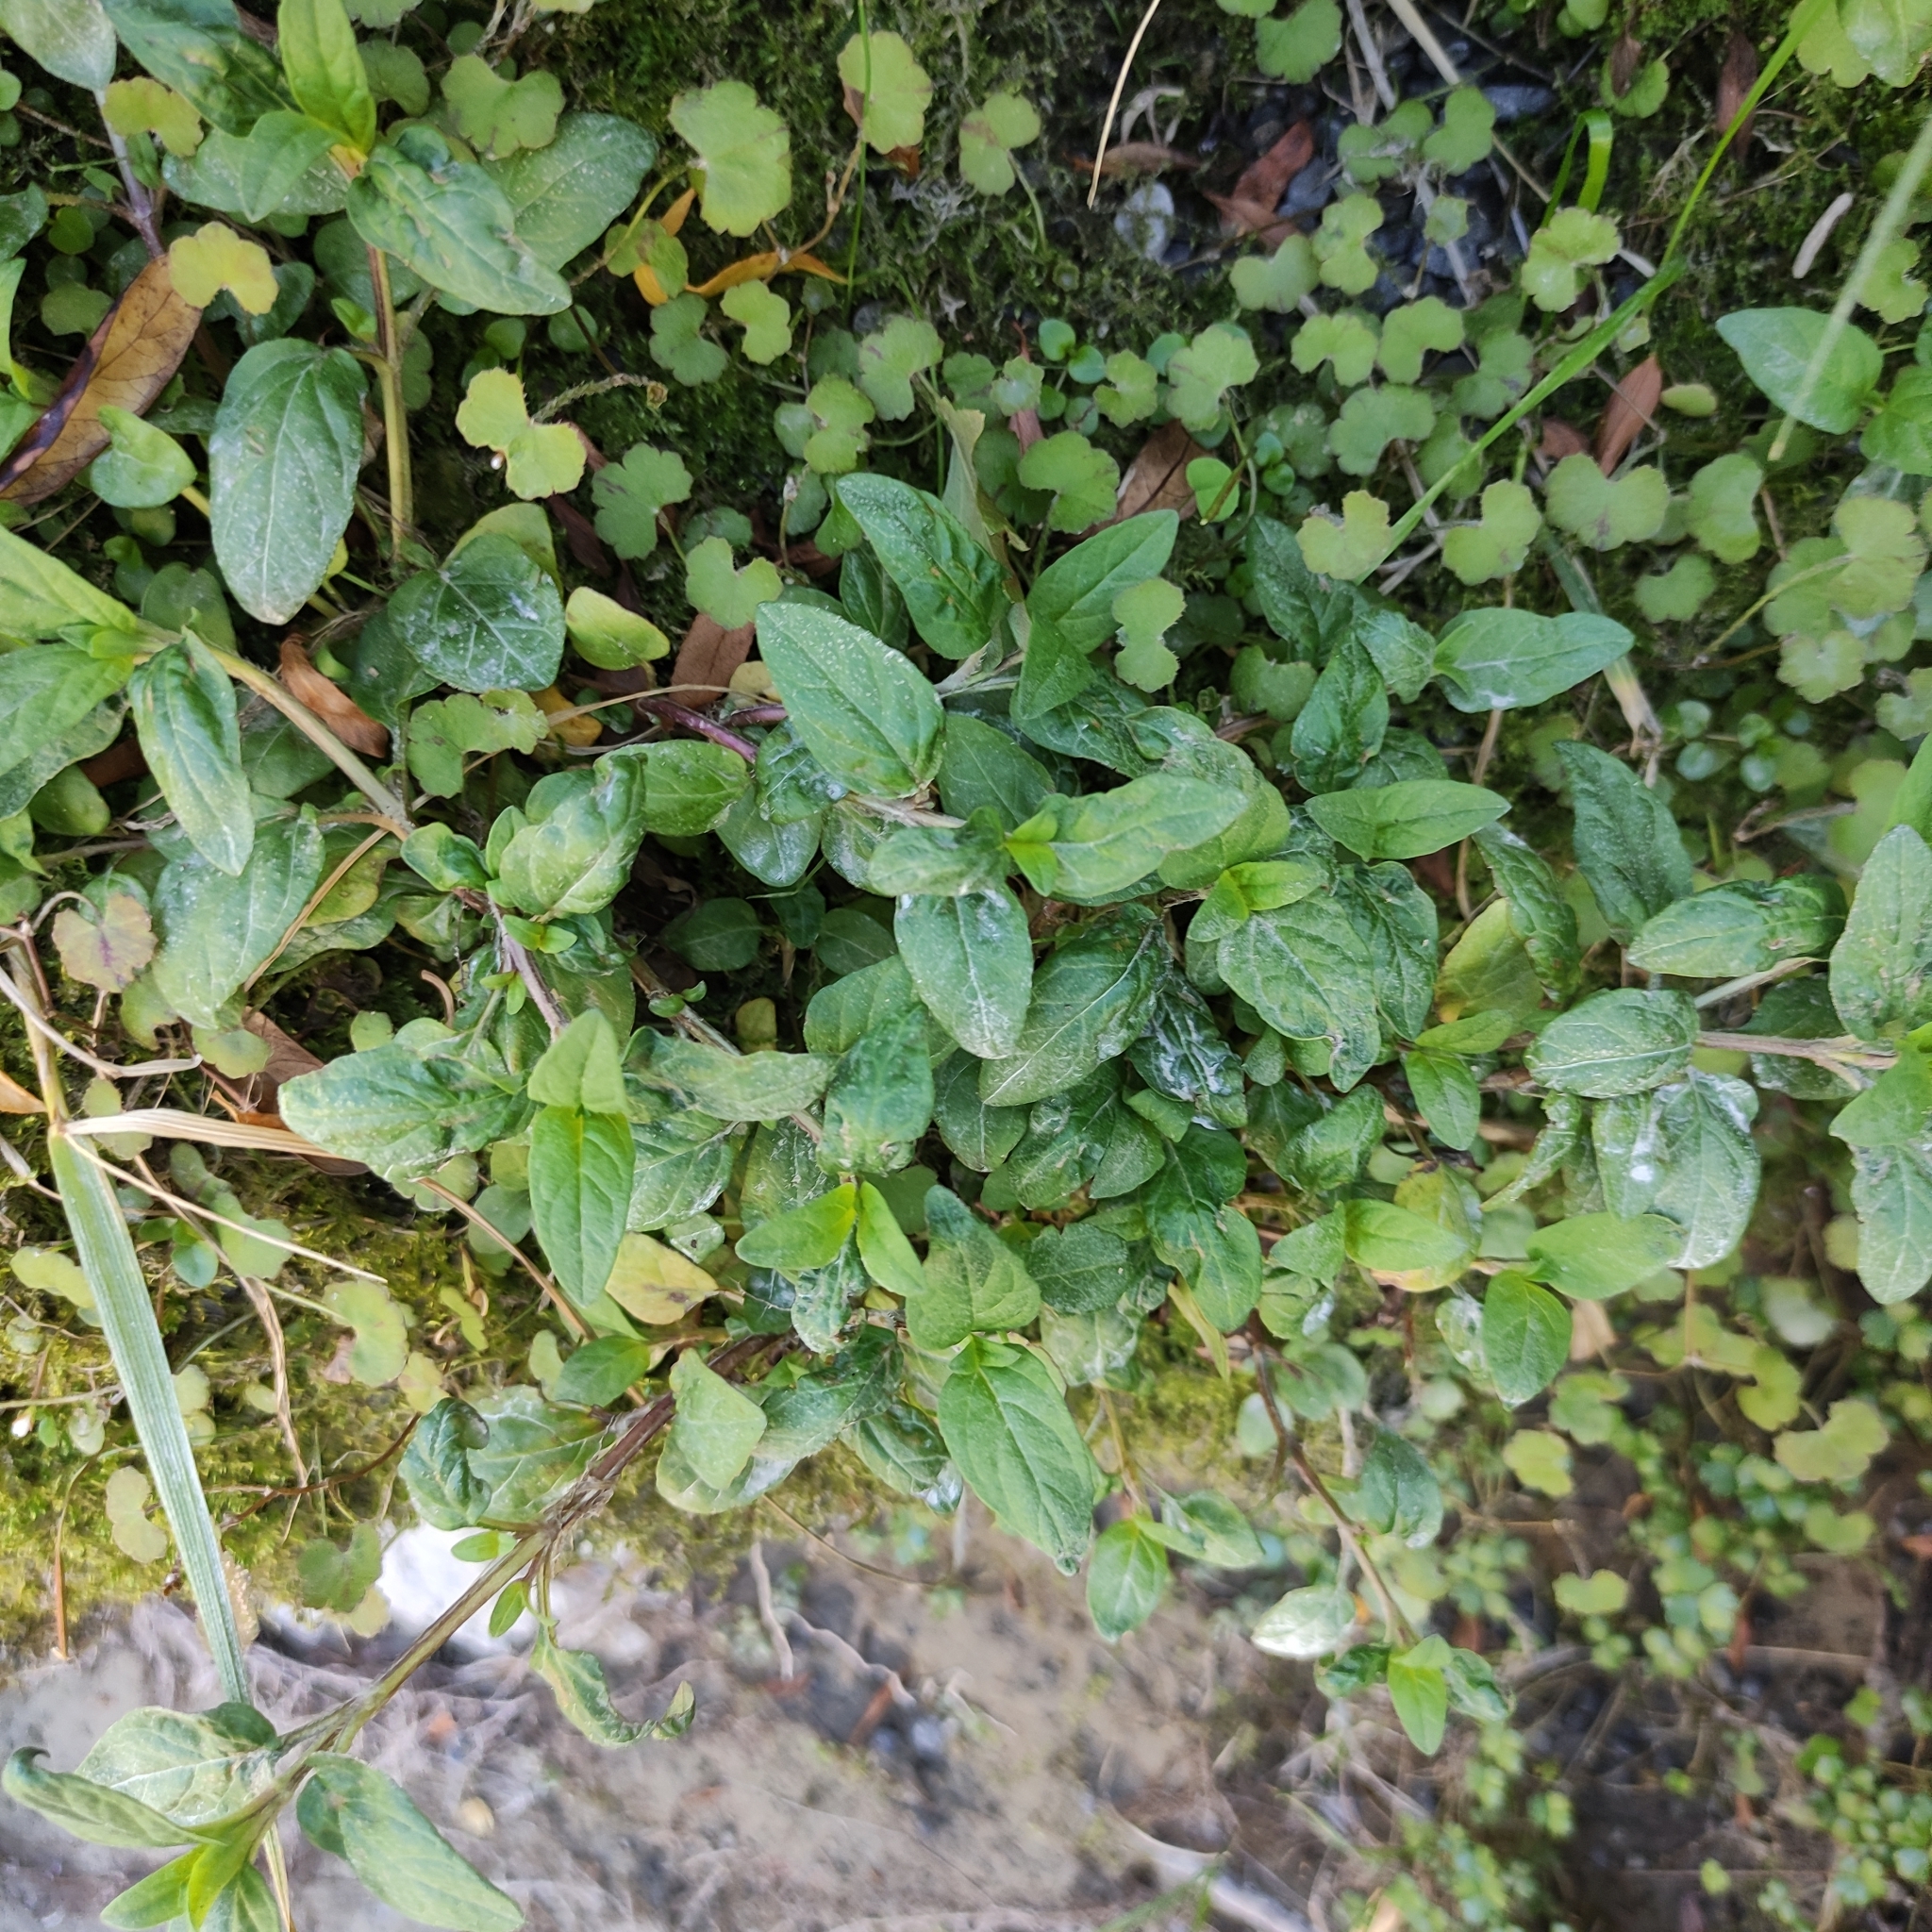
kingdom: Plantae
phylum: Tracheophyta
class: Magnoliopsida
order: Lamiales
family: Lamiaceae
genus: Prunella
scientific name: Prunella vulgaris
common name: Heal-all
